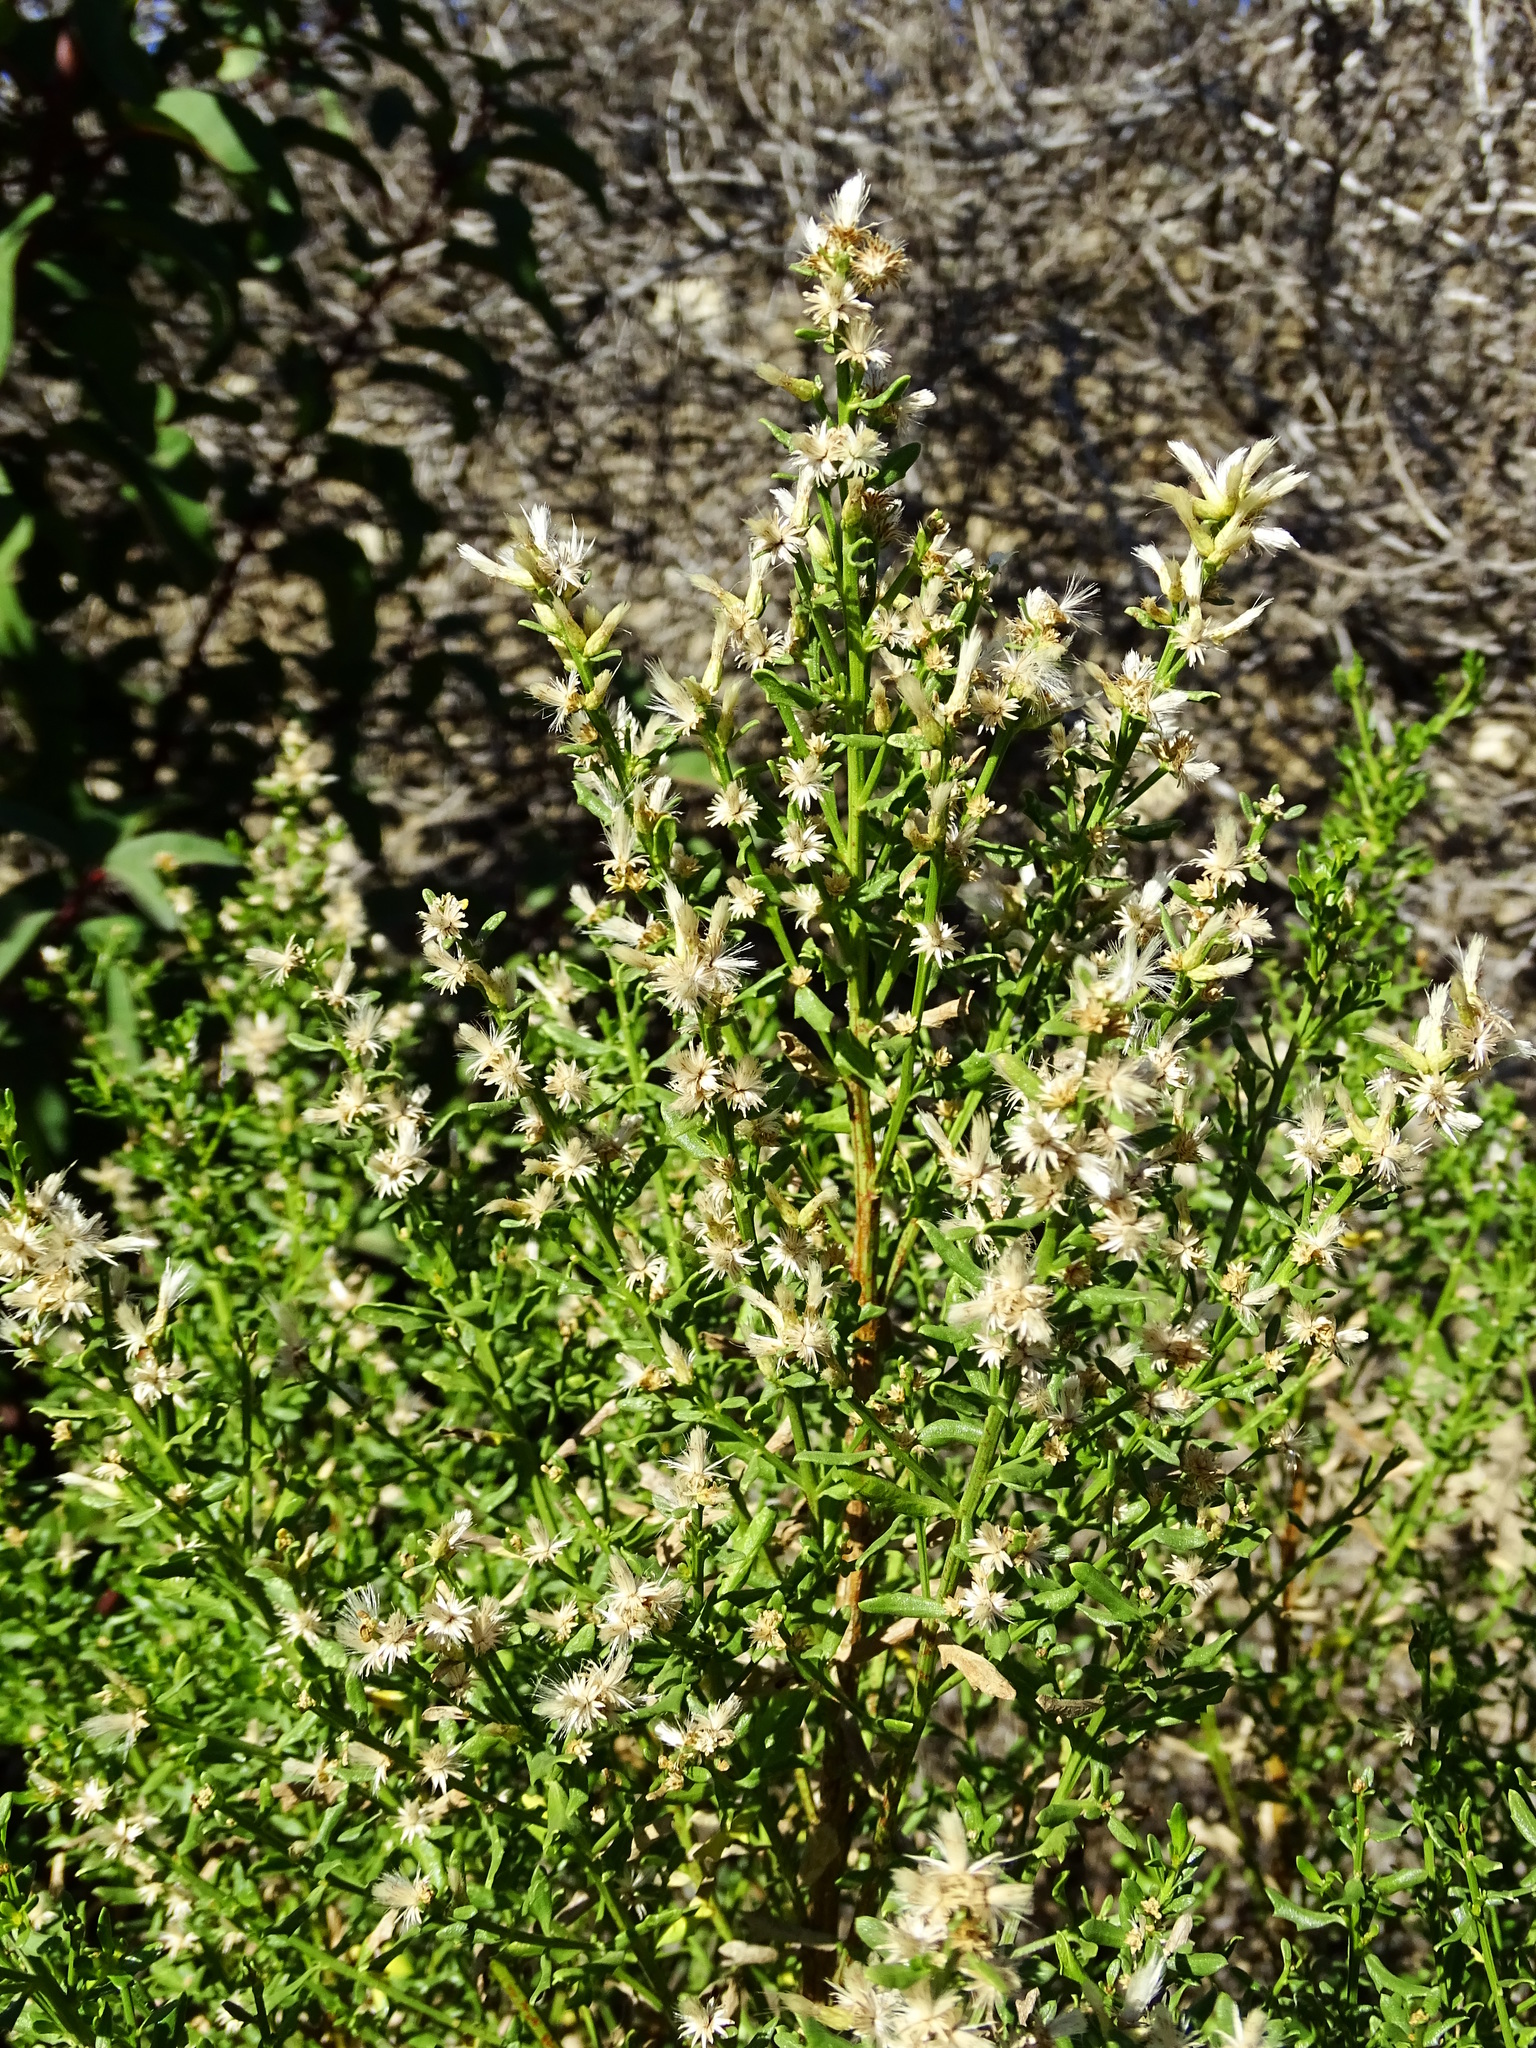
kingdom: Plantae
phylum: Tracheophyta
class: Magnoliopsida
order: Asterales
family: Asteraceae
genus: Baccharis
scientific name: Baccharis pilularis
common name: Coyotebrush
